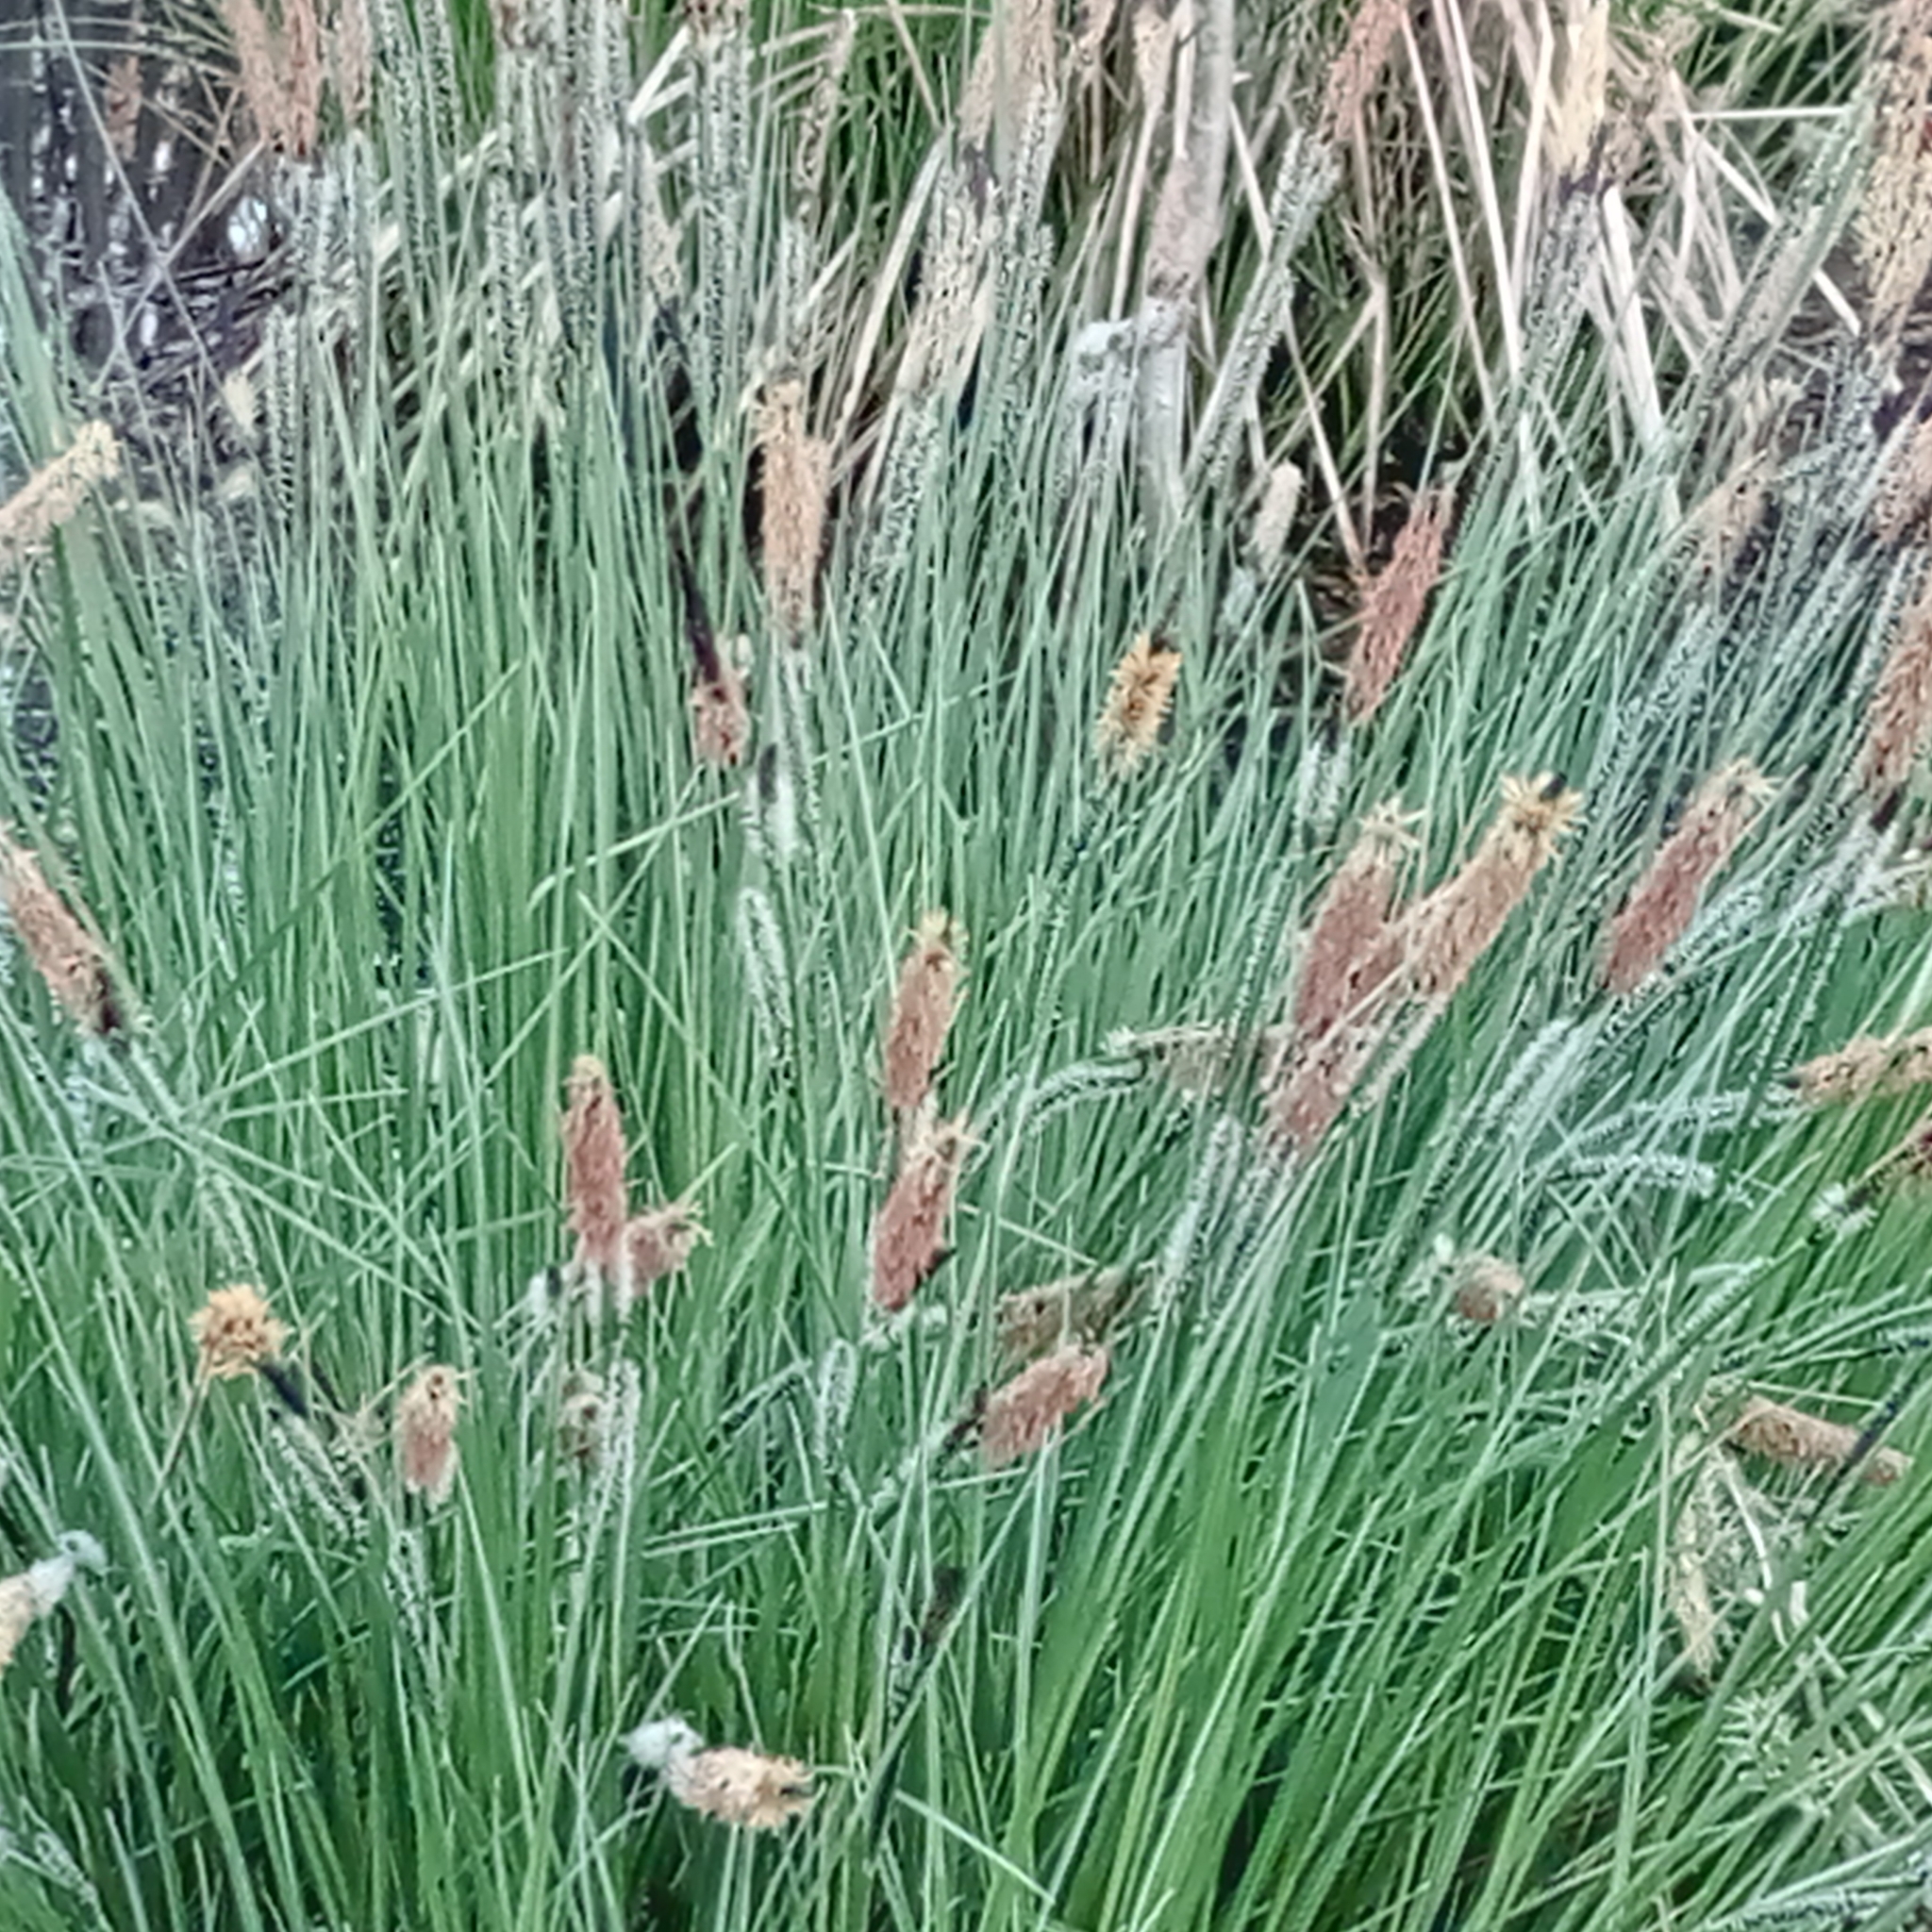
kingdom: Plantae
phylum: Tracheophyta
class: Liliopsida
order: Poales
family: Cyperaceae
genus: Carex
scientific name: Carex cespitosa
